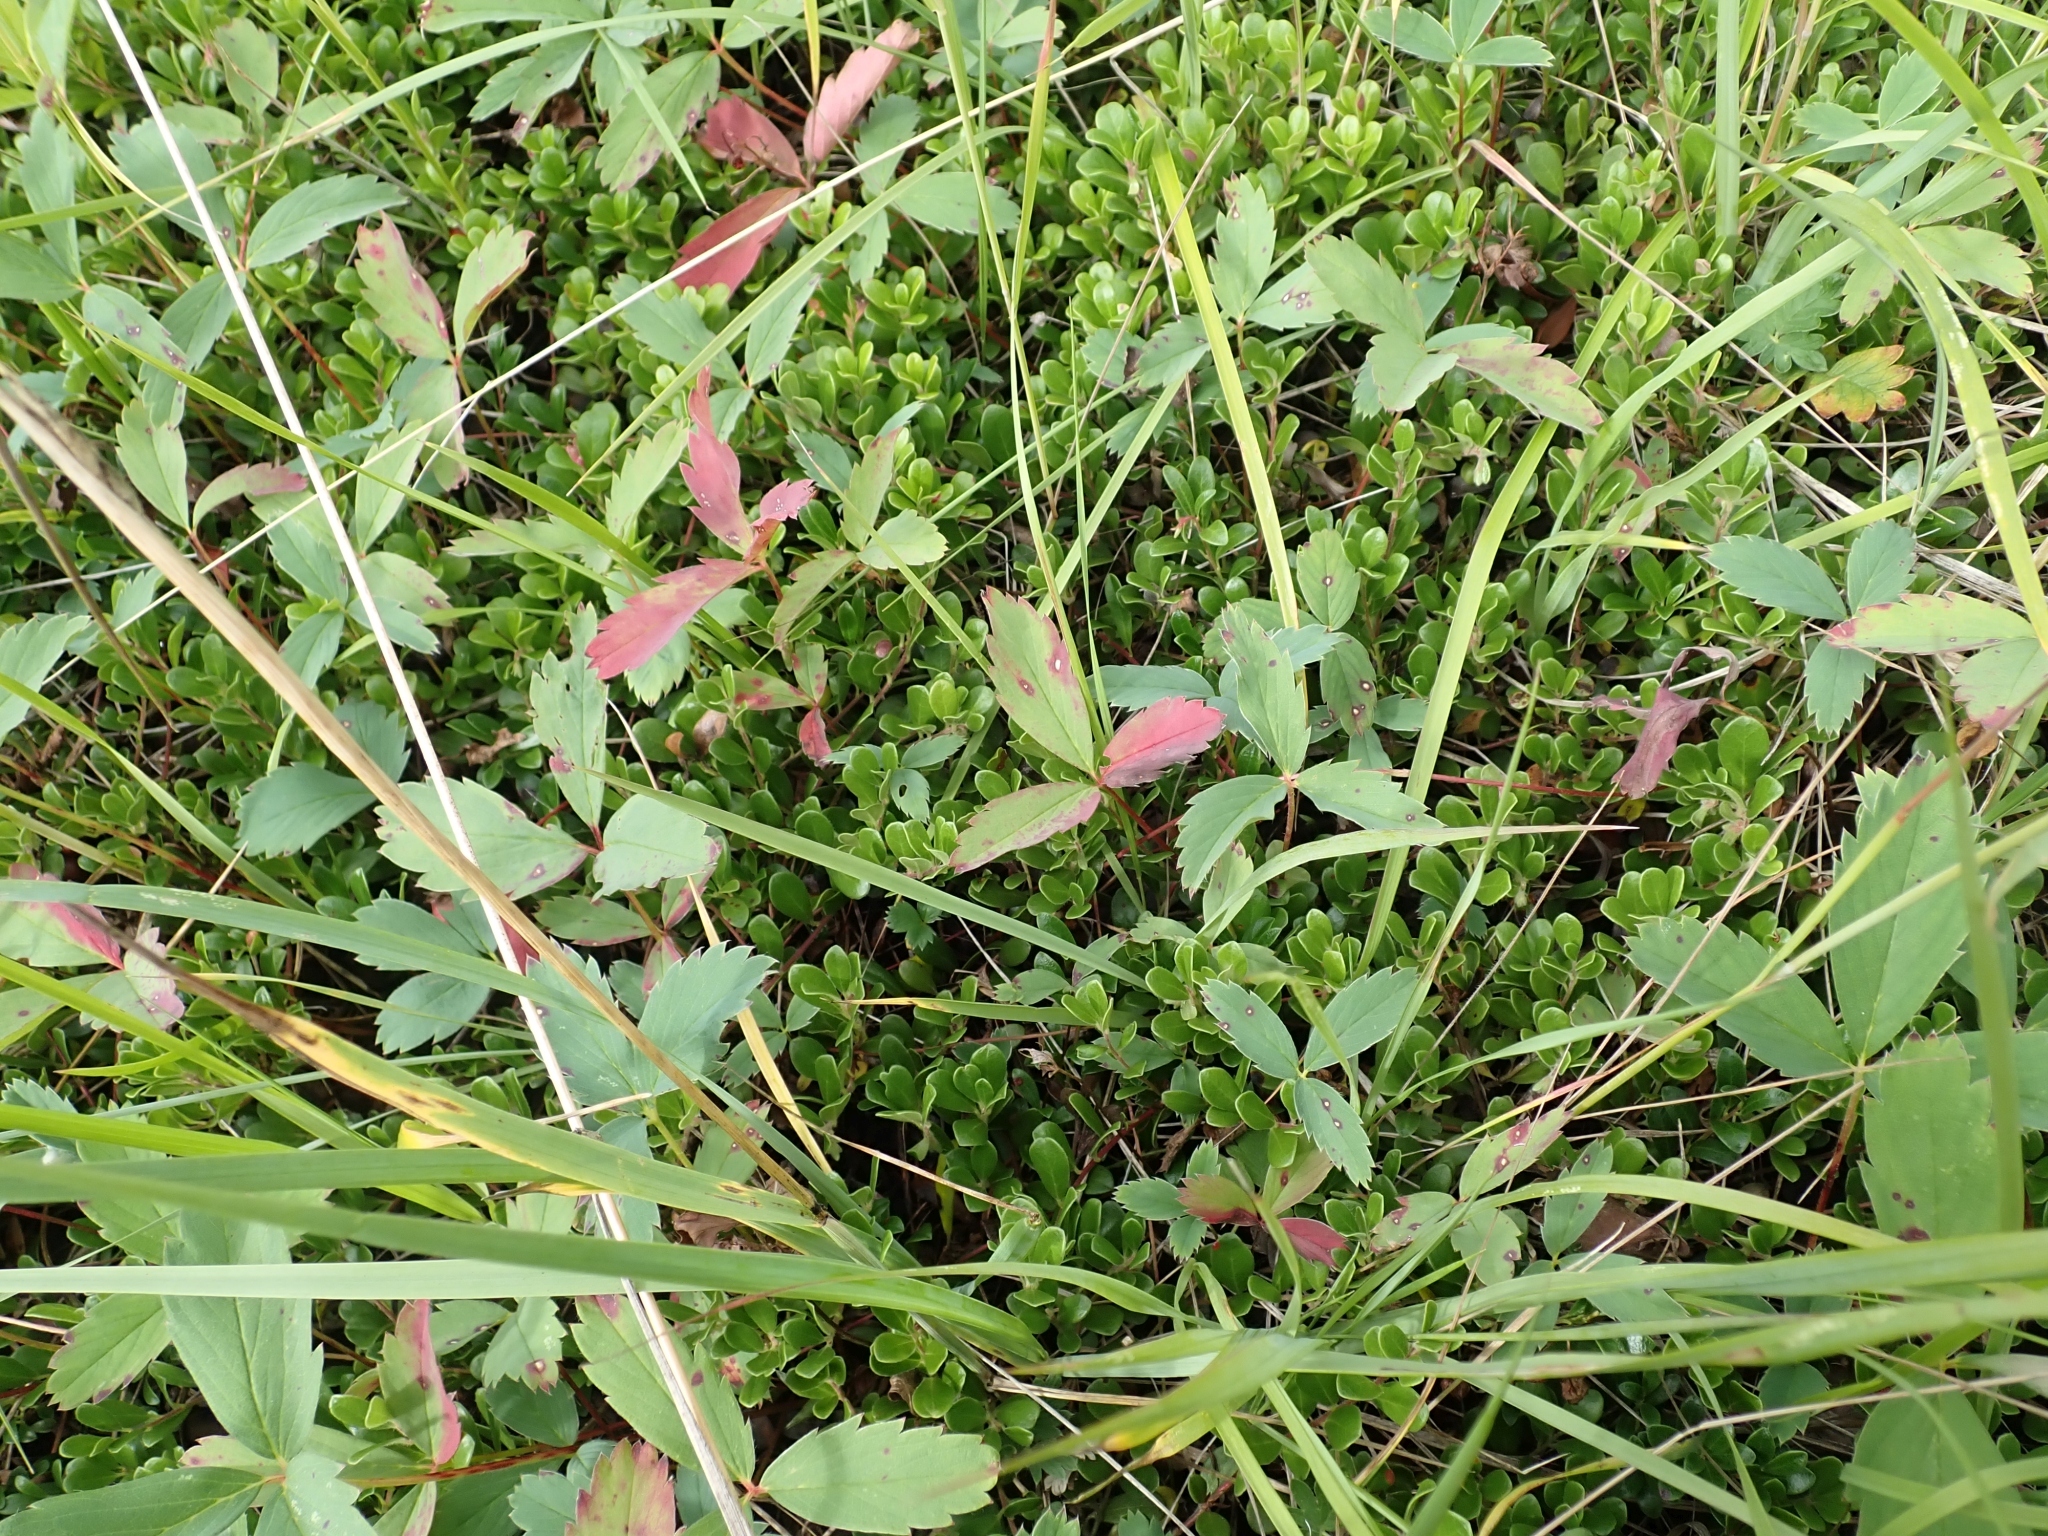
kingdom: Plantae
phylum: Tracheophyta
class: Magnoliopsida
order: Rosales
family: Rosaceae
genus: Fragaria
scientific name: Fragaria virginiana
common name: Thickleaved wild strawberry
